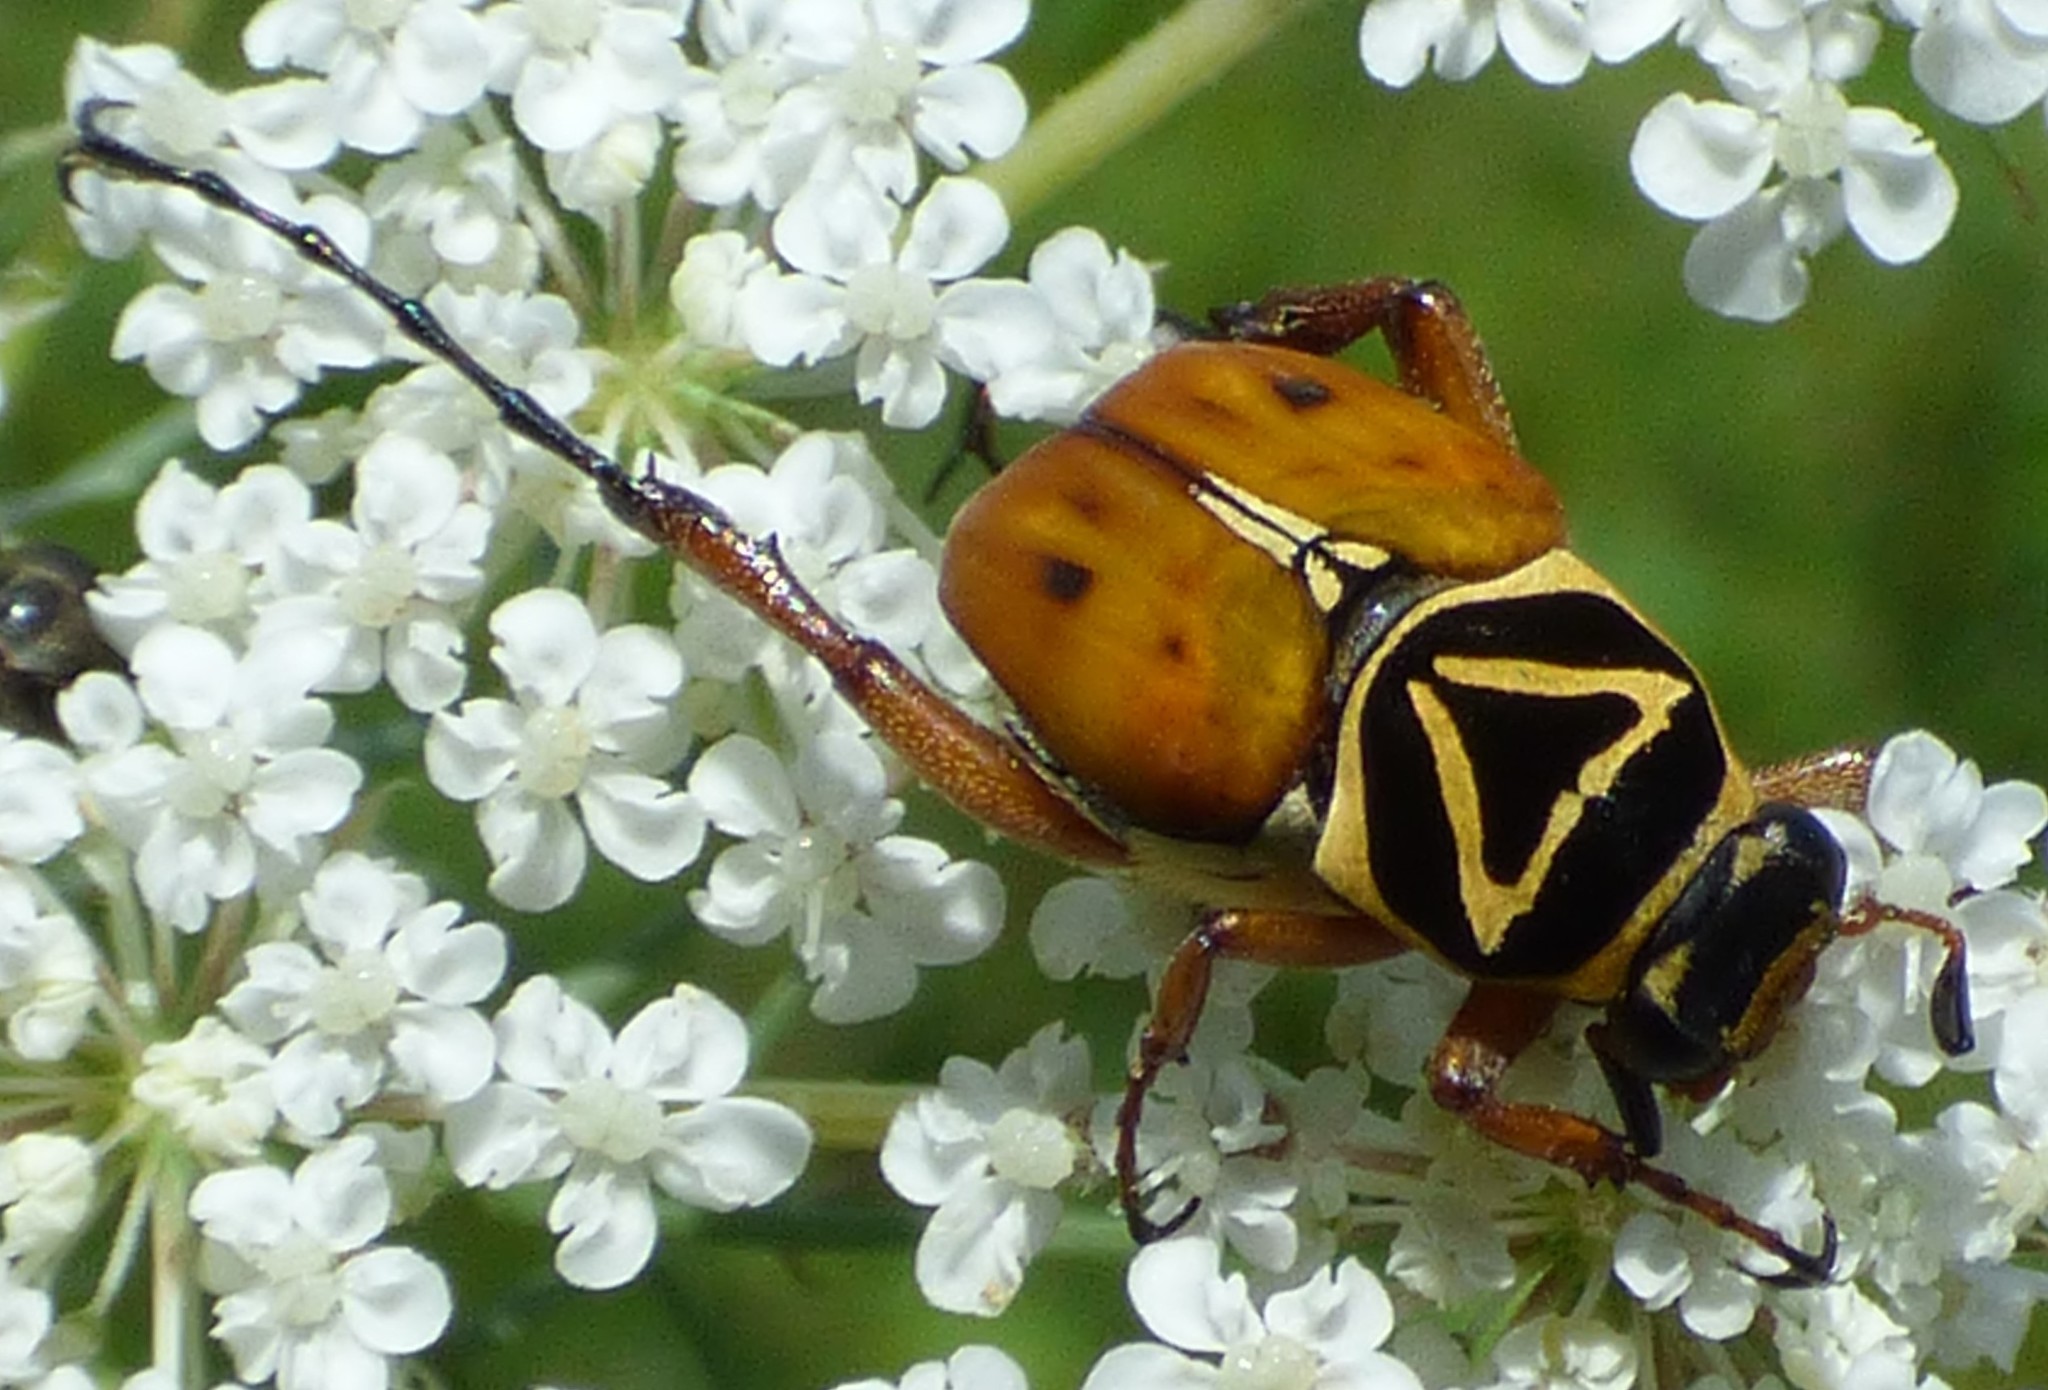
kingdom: Animalia
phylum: Arthropoda
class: Insecta
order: Coleoptera
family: Scarabaeidae
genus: Trigonopeltastes
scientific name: Trigonopeltastes delta
